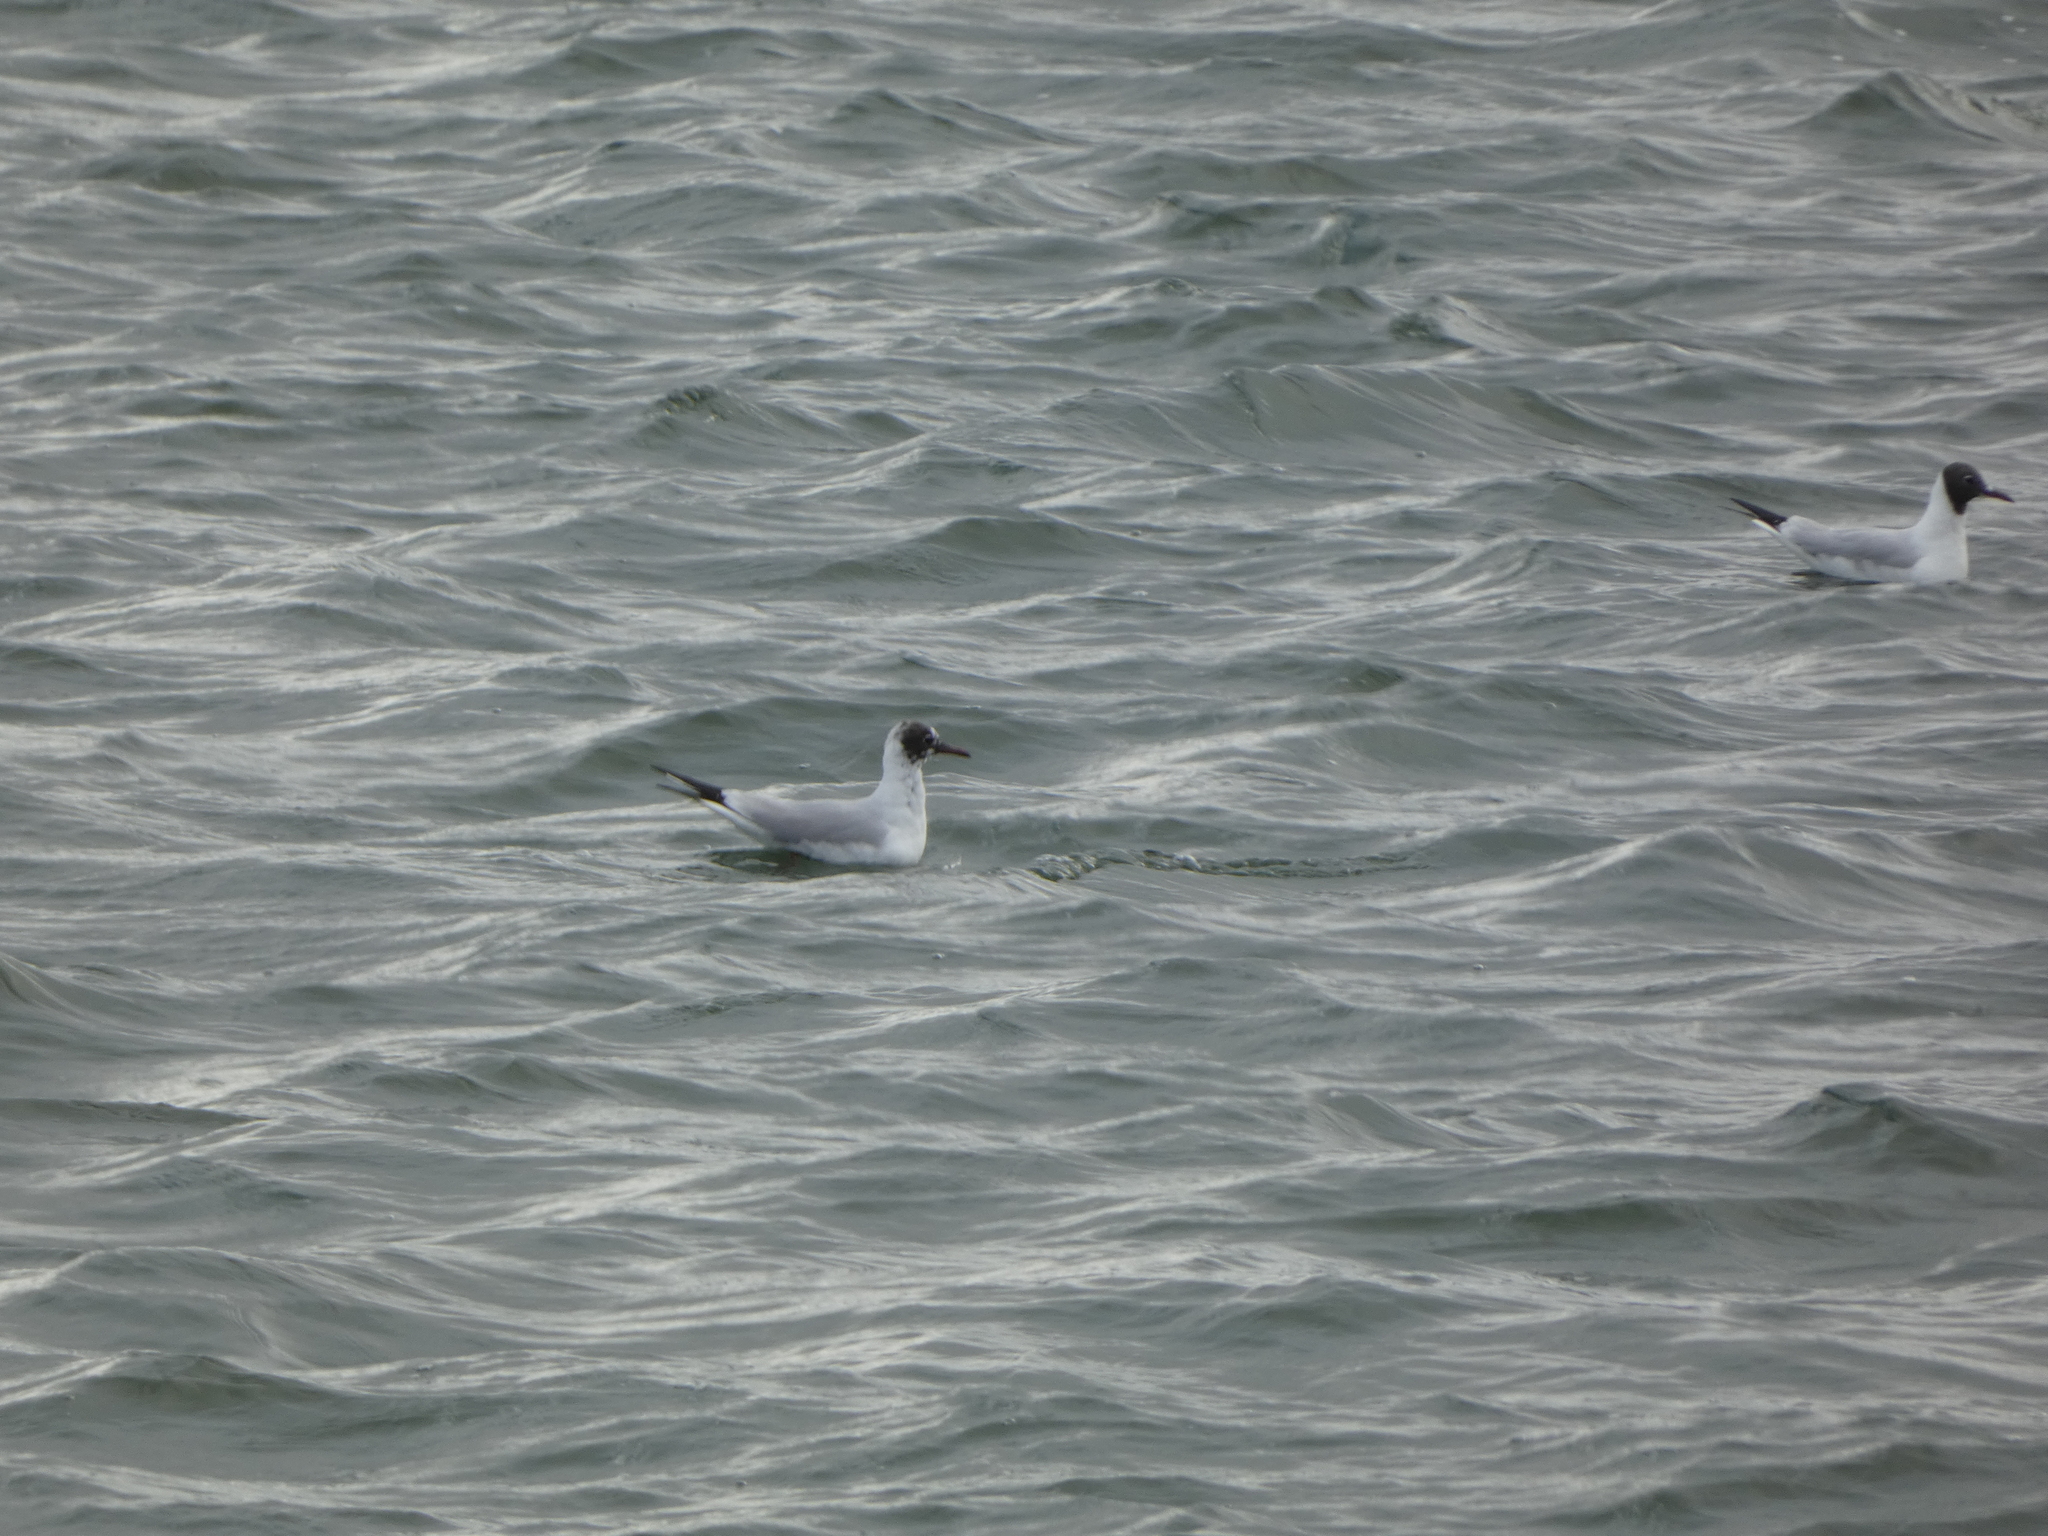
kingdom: Animalia
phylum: Chordata
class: Aves
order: Charadriiformes
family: Laridae
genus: Chroicocephalus
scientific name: Chroicocephalus ridibundus
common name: Black-headed gull
